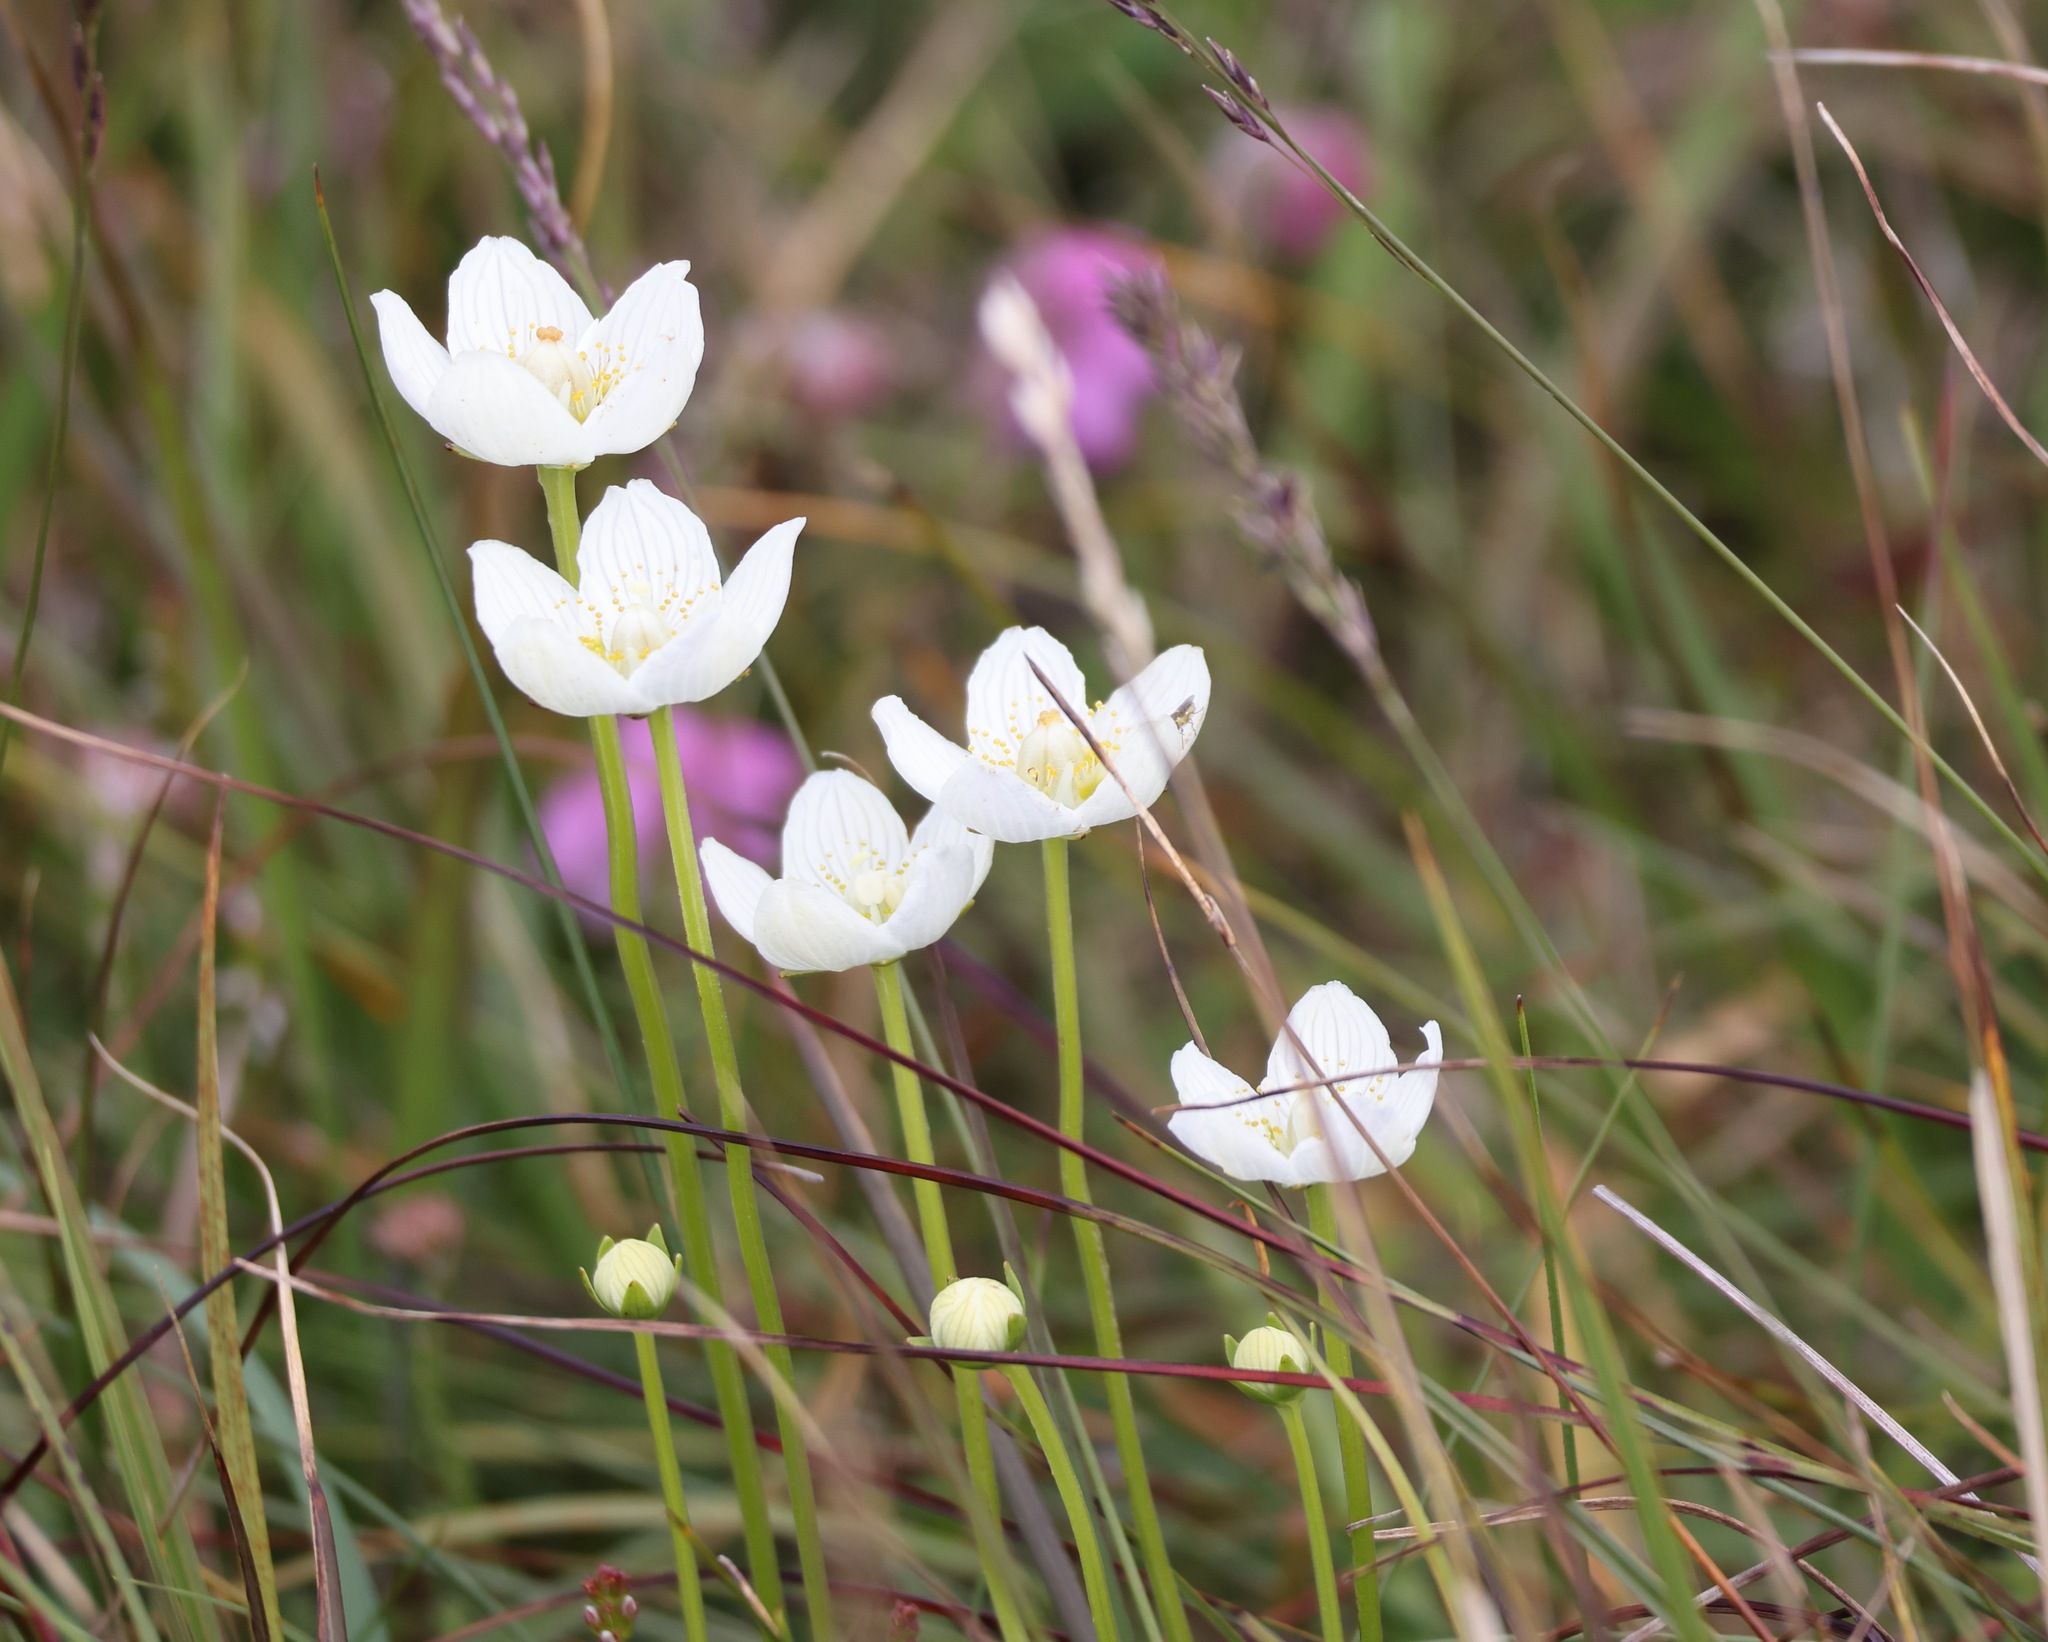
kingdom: Plantae
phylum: Tracheophyta
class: Magnoliopsida
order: Celastrales
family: Parnassiaceae
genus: Parnassia
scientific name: Parnassia palustris
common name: Grass-of-parnassus
